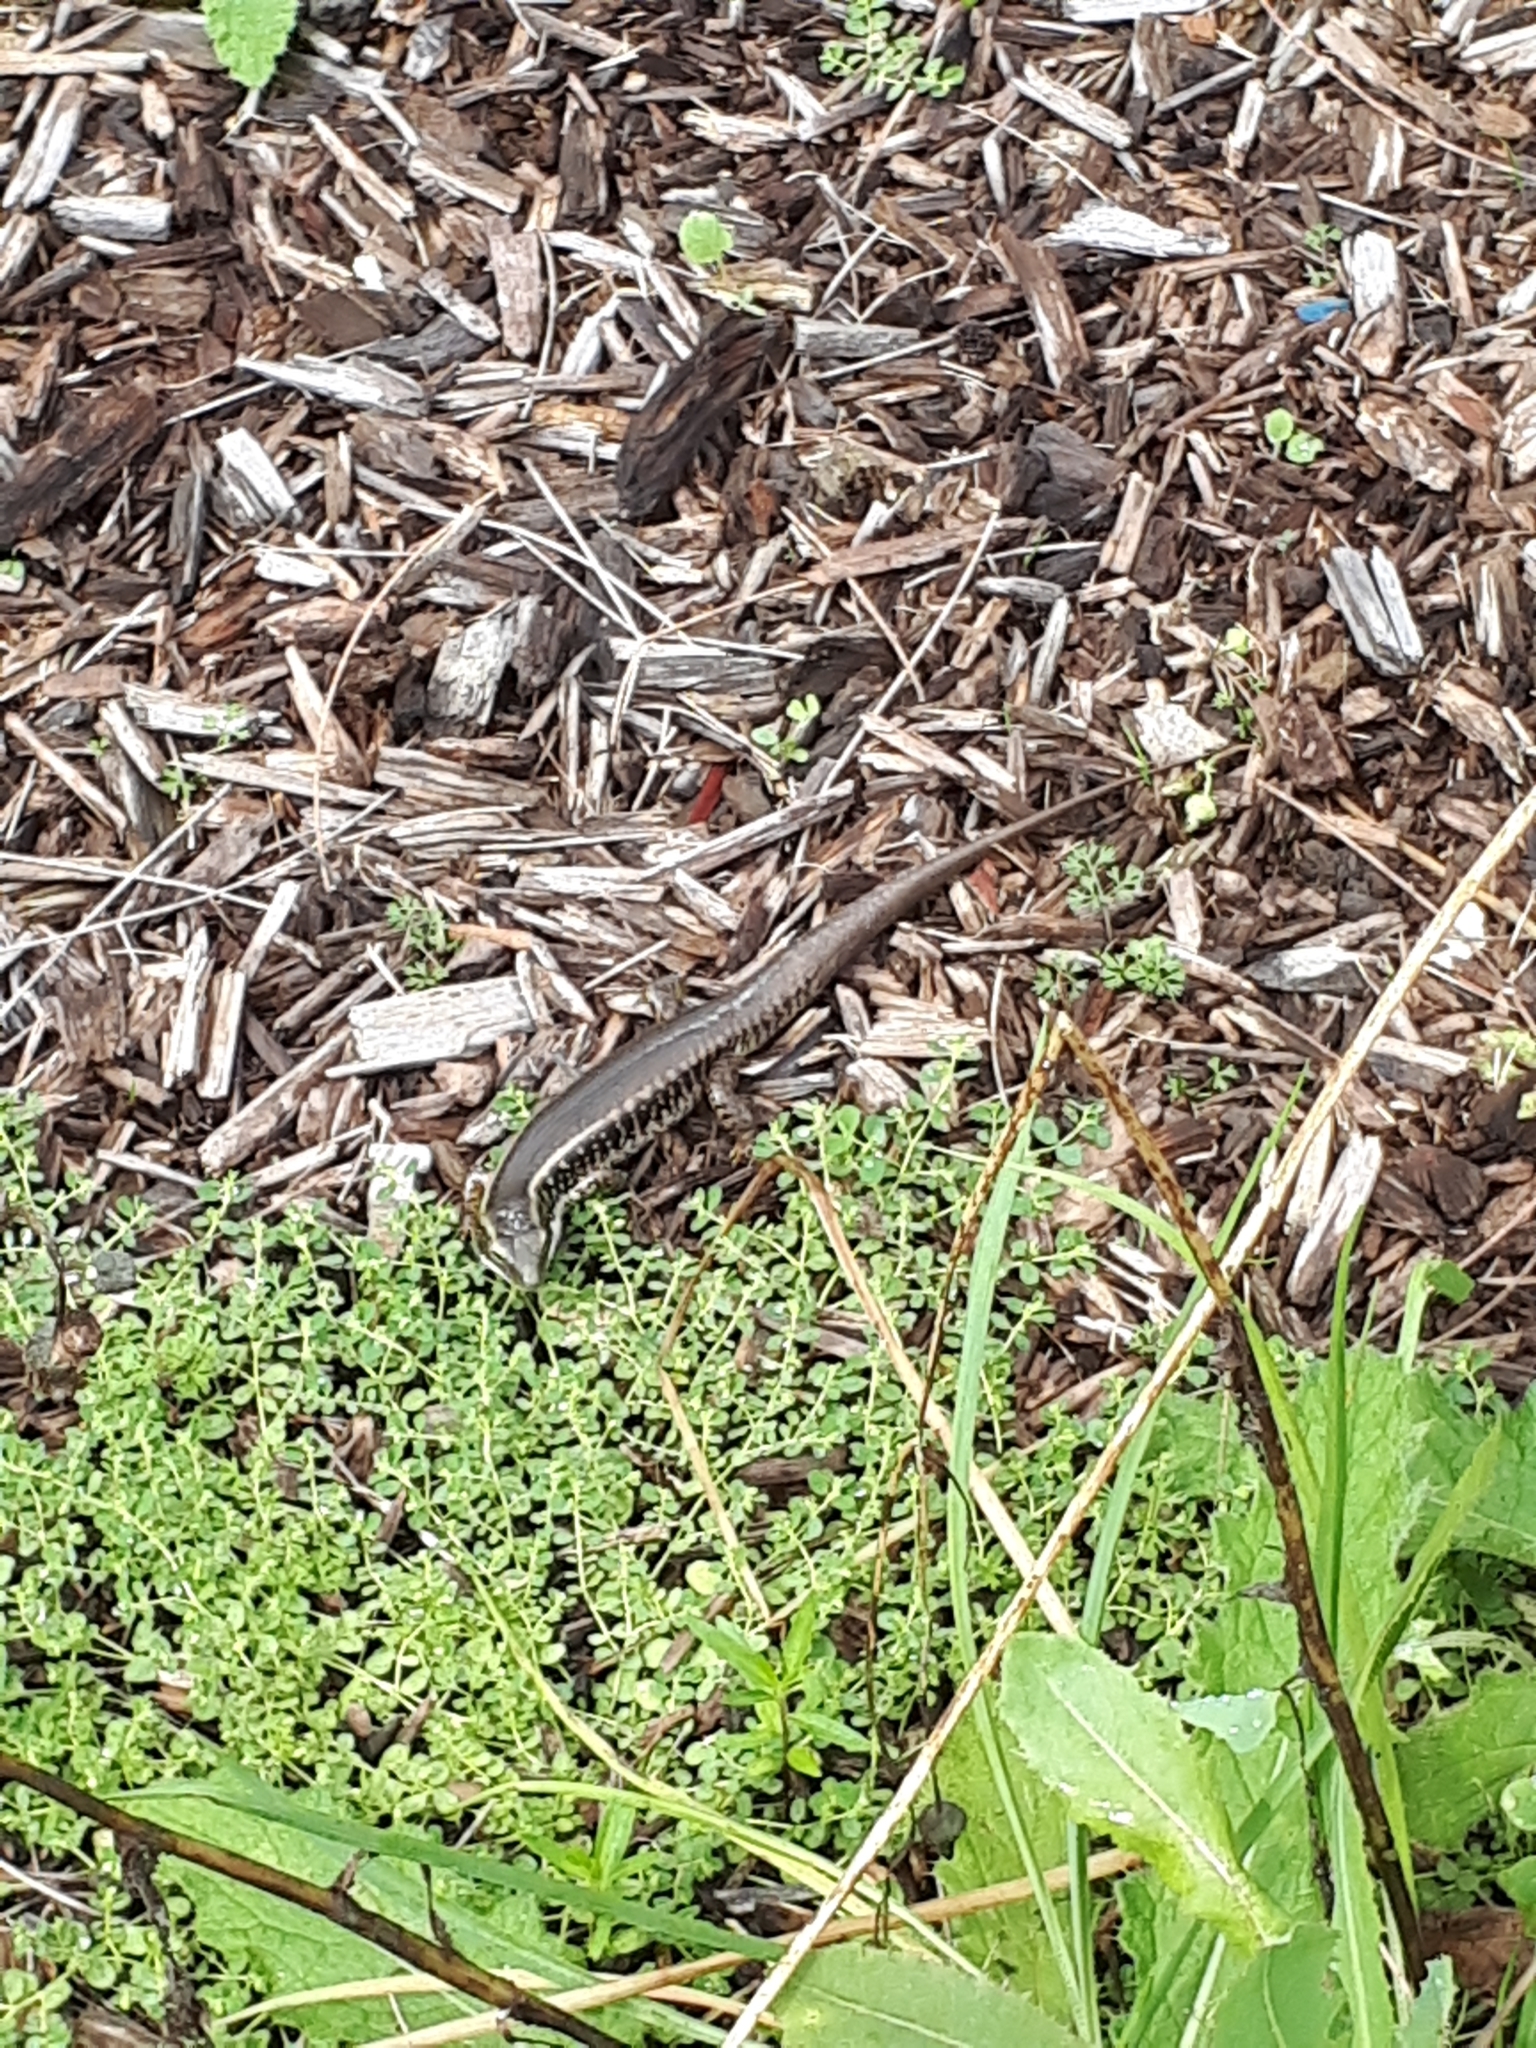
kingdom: Animalia
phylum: Chordata
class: Squamata
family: Scincidae
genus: Eulamprus
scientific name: Eulamprus quoyii
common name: Eastern water skink
